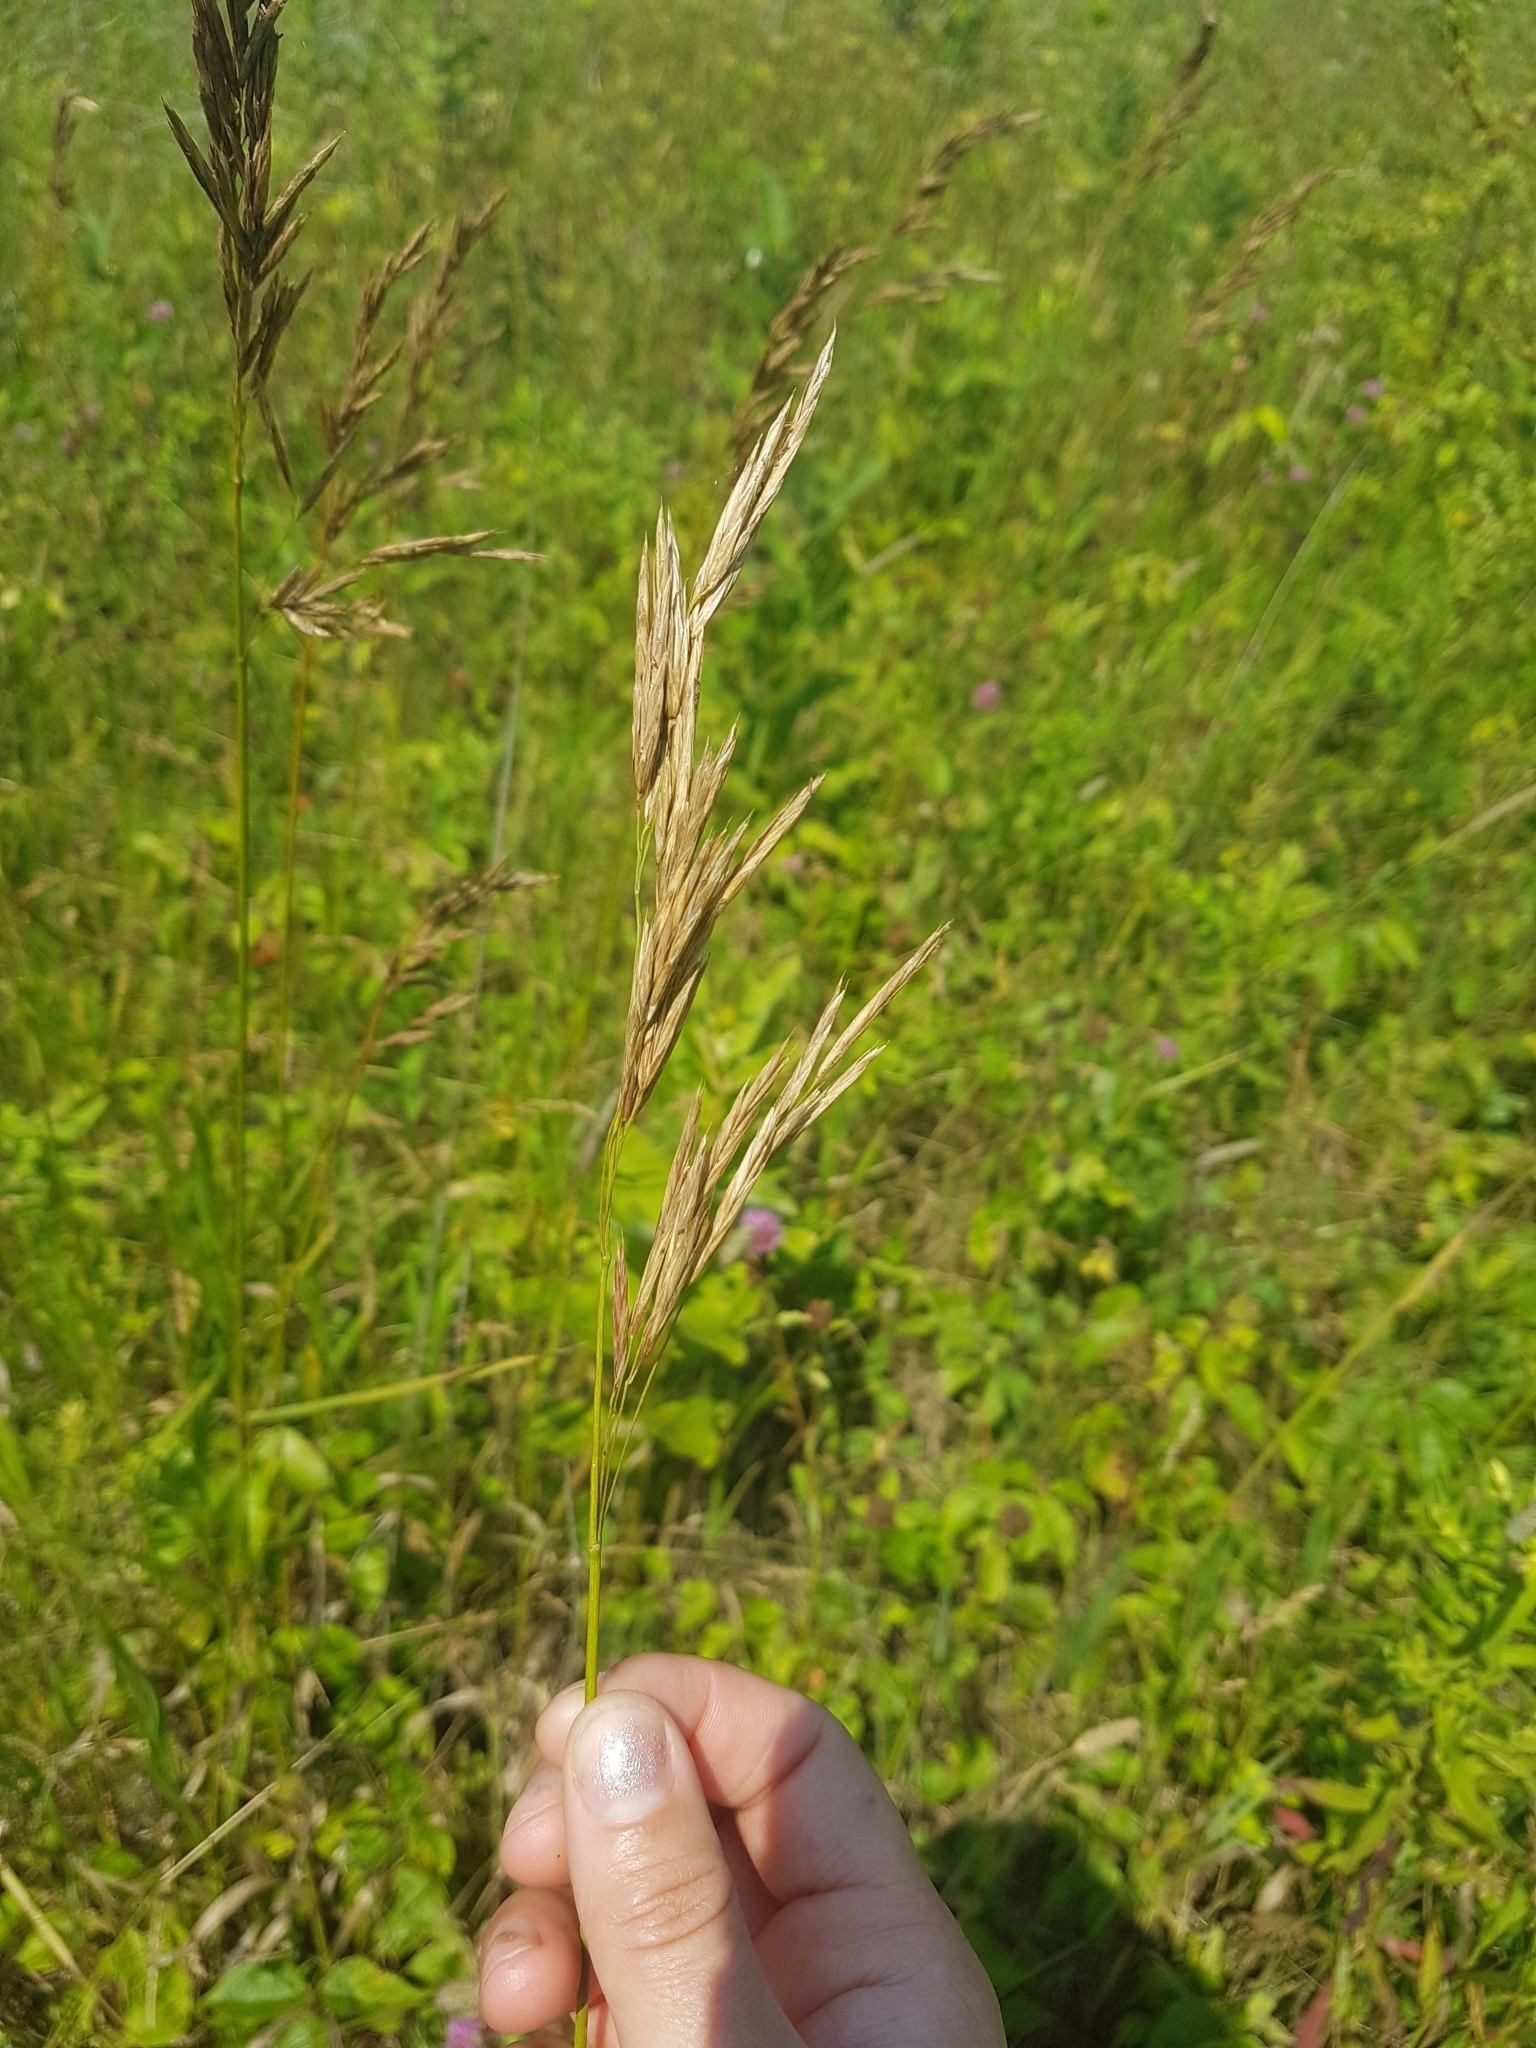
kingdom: Plantae
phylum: Tracheophyta
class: Liliopsida
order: Poales
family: Poaceae
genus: Bromus
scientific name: Bromus inermis
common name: Smooth brome
